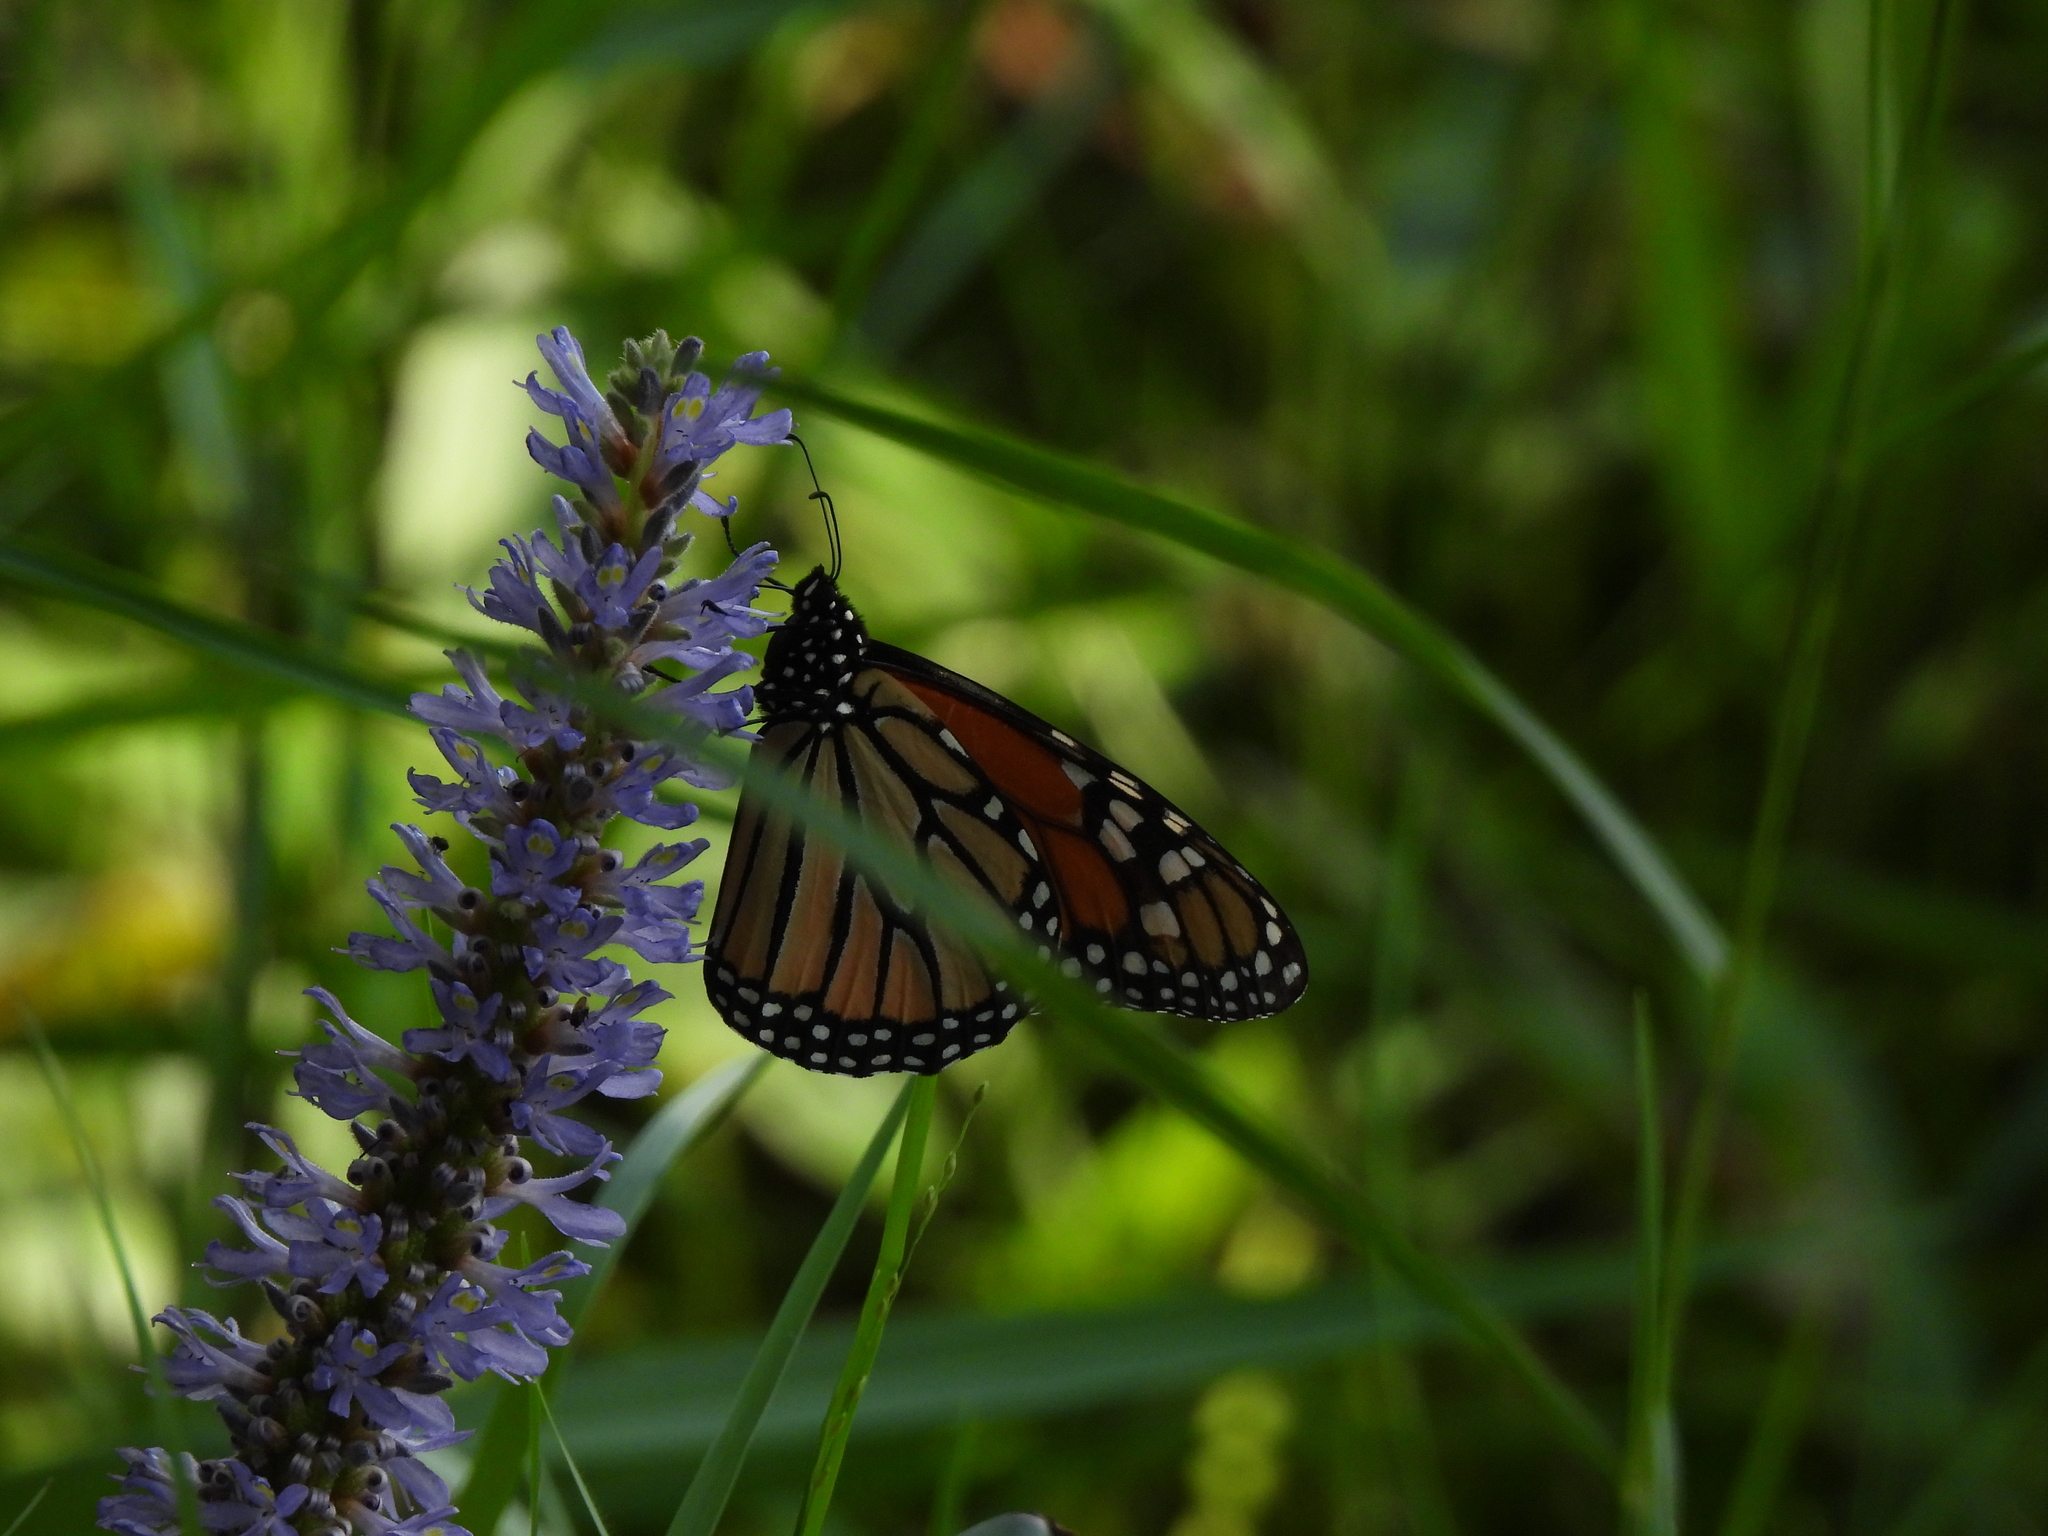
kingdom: Animalia
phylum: Arthropoda
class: Insecta
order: Lepidoptera
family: Nymphalidae
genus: Danaus
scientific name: Danaus plexippus
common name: Monarch
